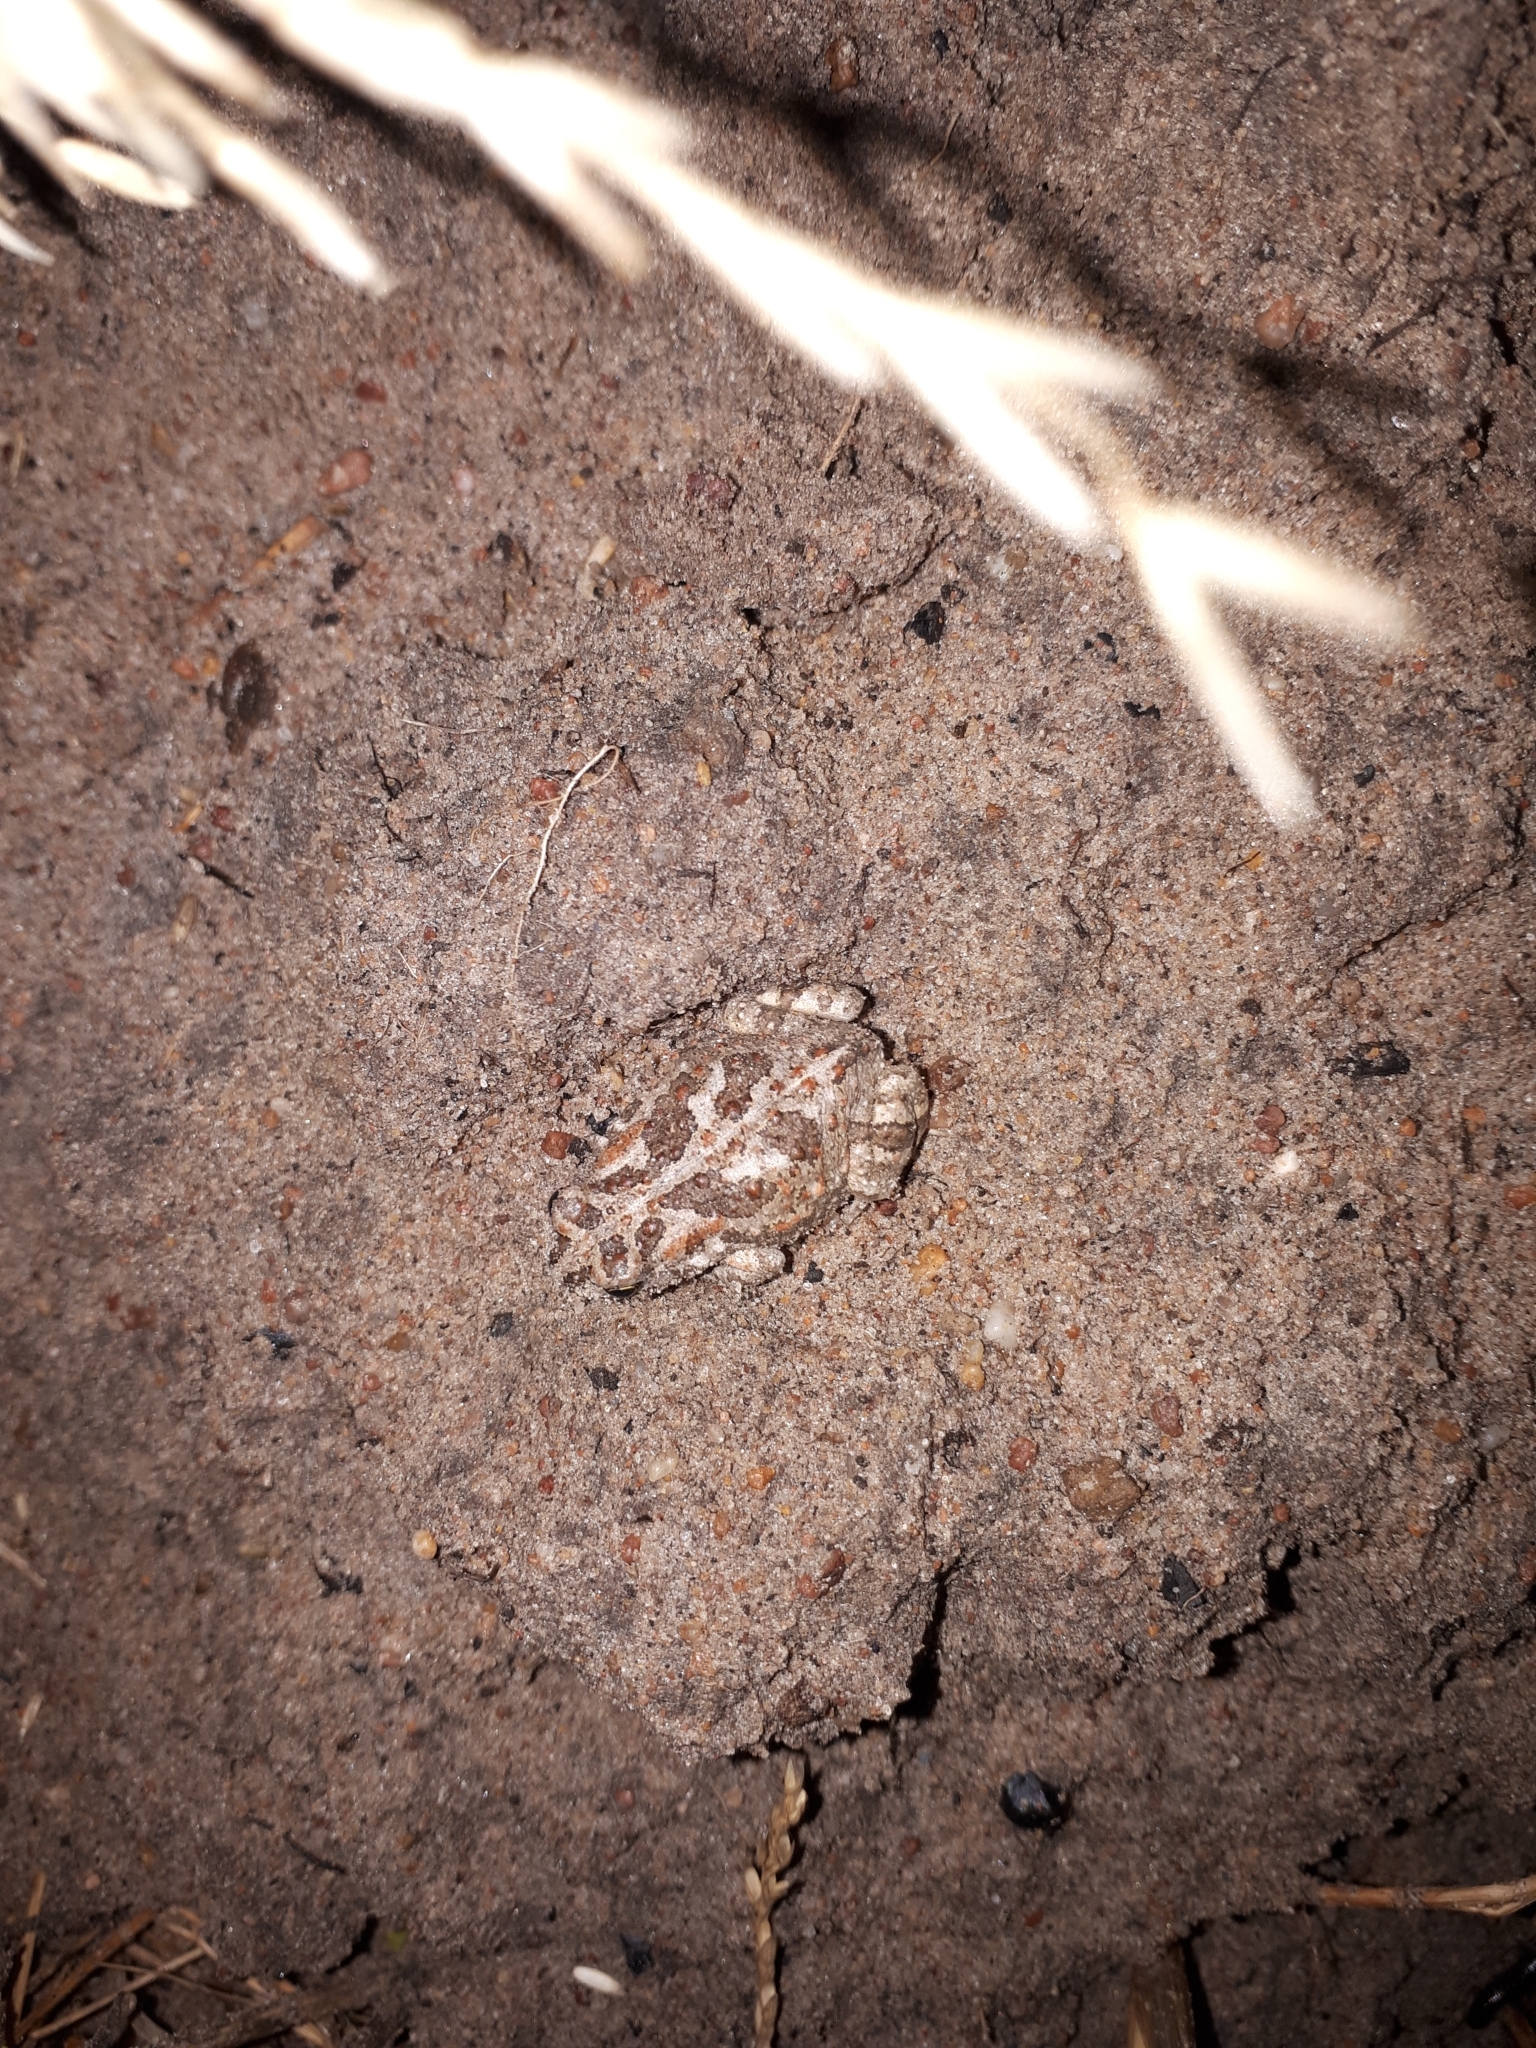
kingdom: Animalia
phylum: Chordata
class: Amphibia
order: Anura
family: Bufonidae
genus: Vandijkophrynus
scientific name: Vandijkophrynus angusticeps
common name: Sand toad
